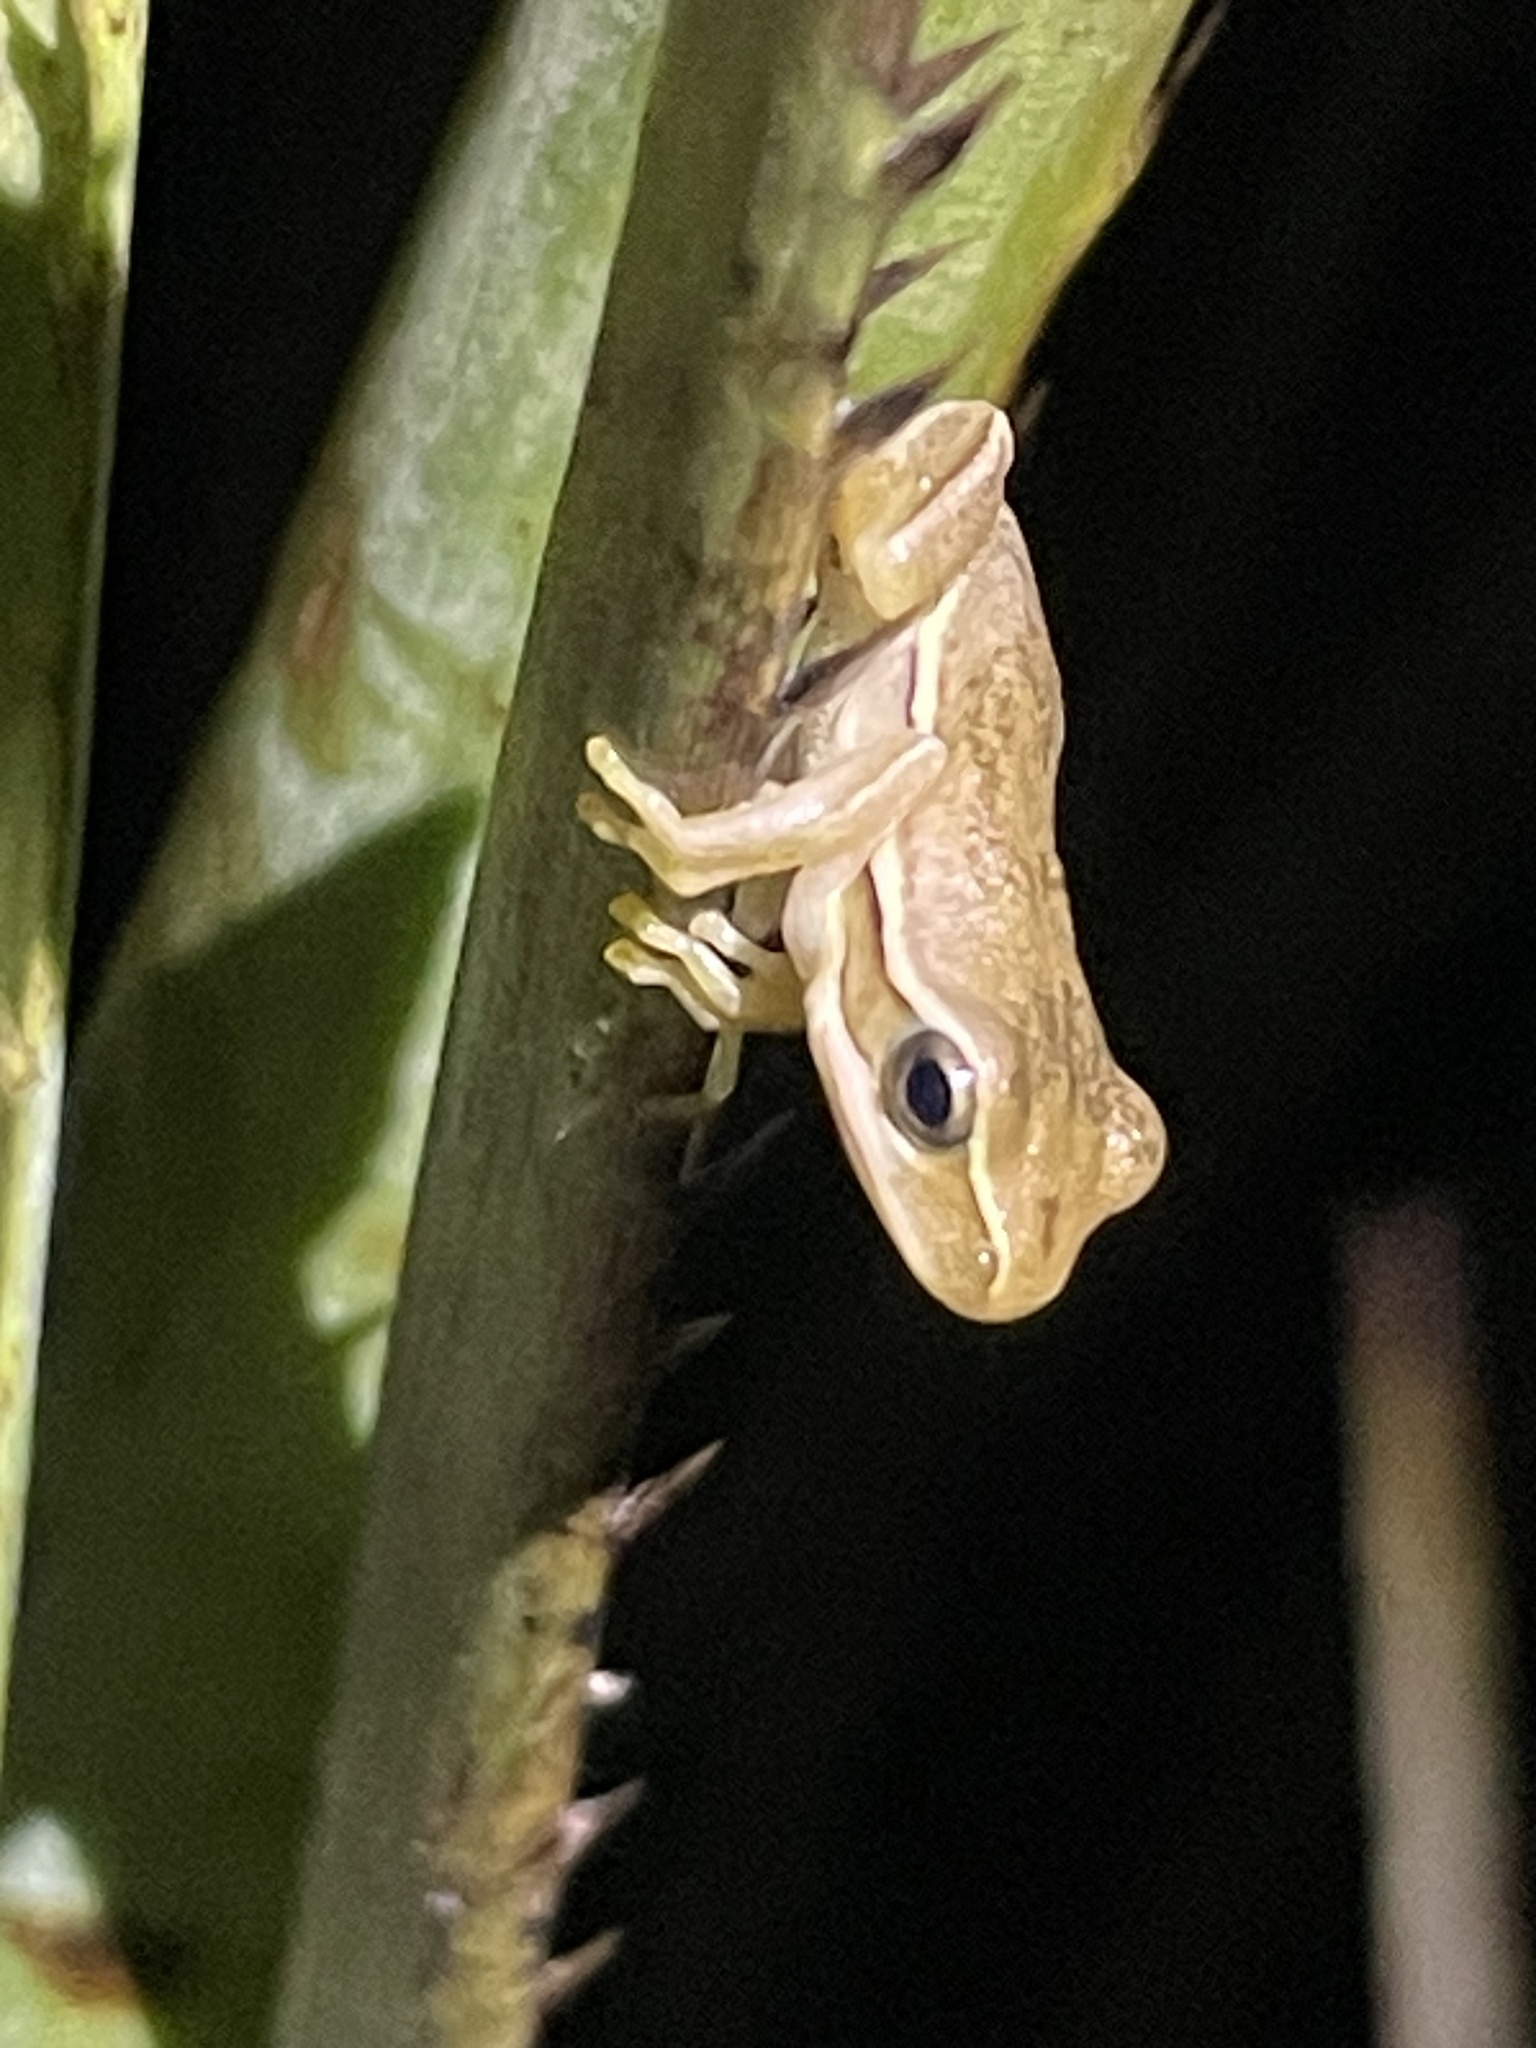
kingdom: Animalia
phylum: Chordata
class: Amphibia
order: Anura
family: Hylidae
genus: Boana
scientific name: Boana pulchella
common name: Montevideo treefrog
